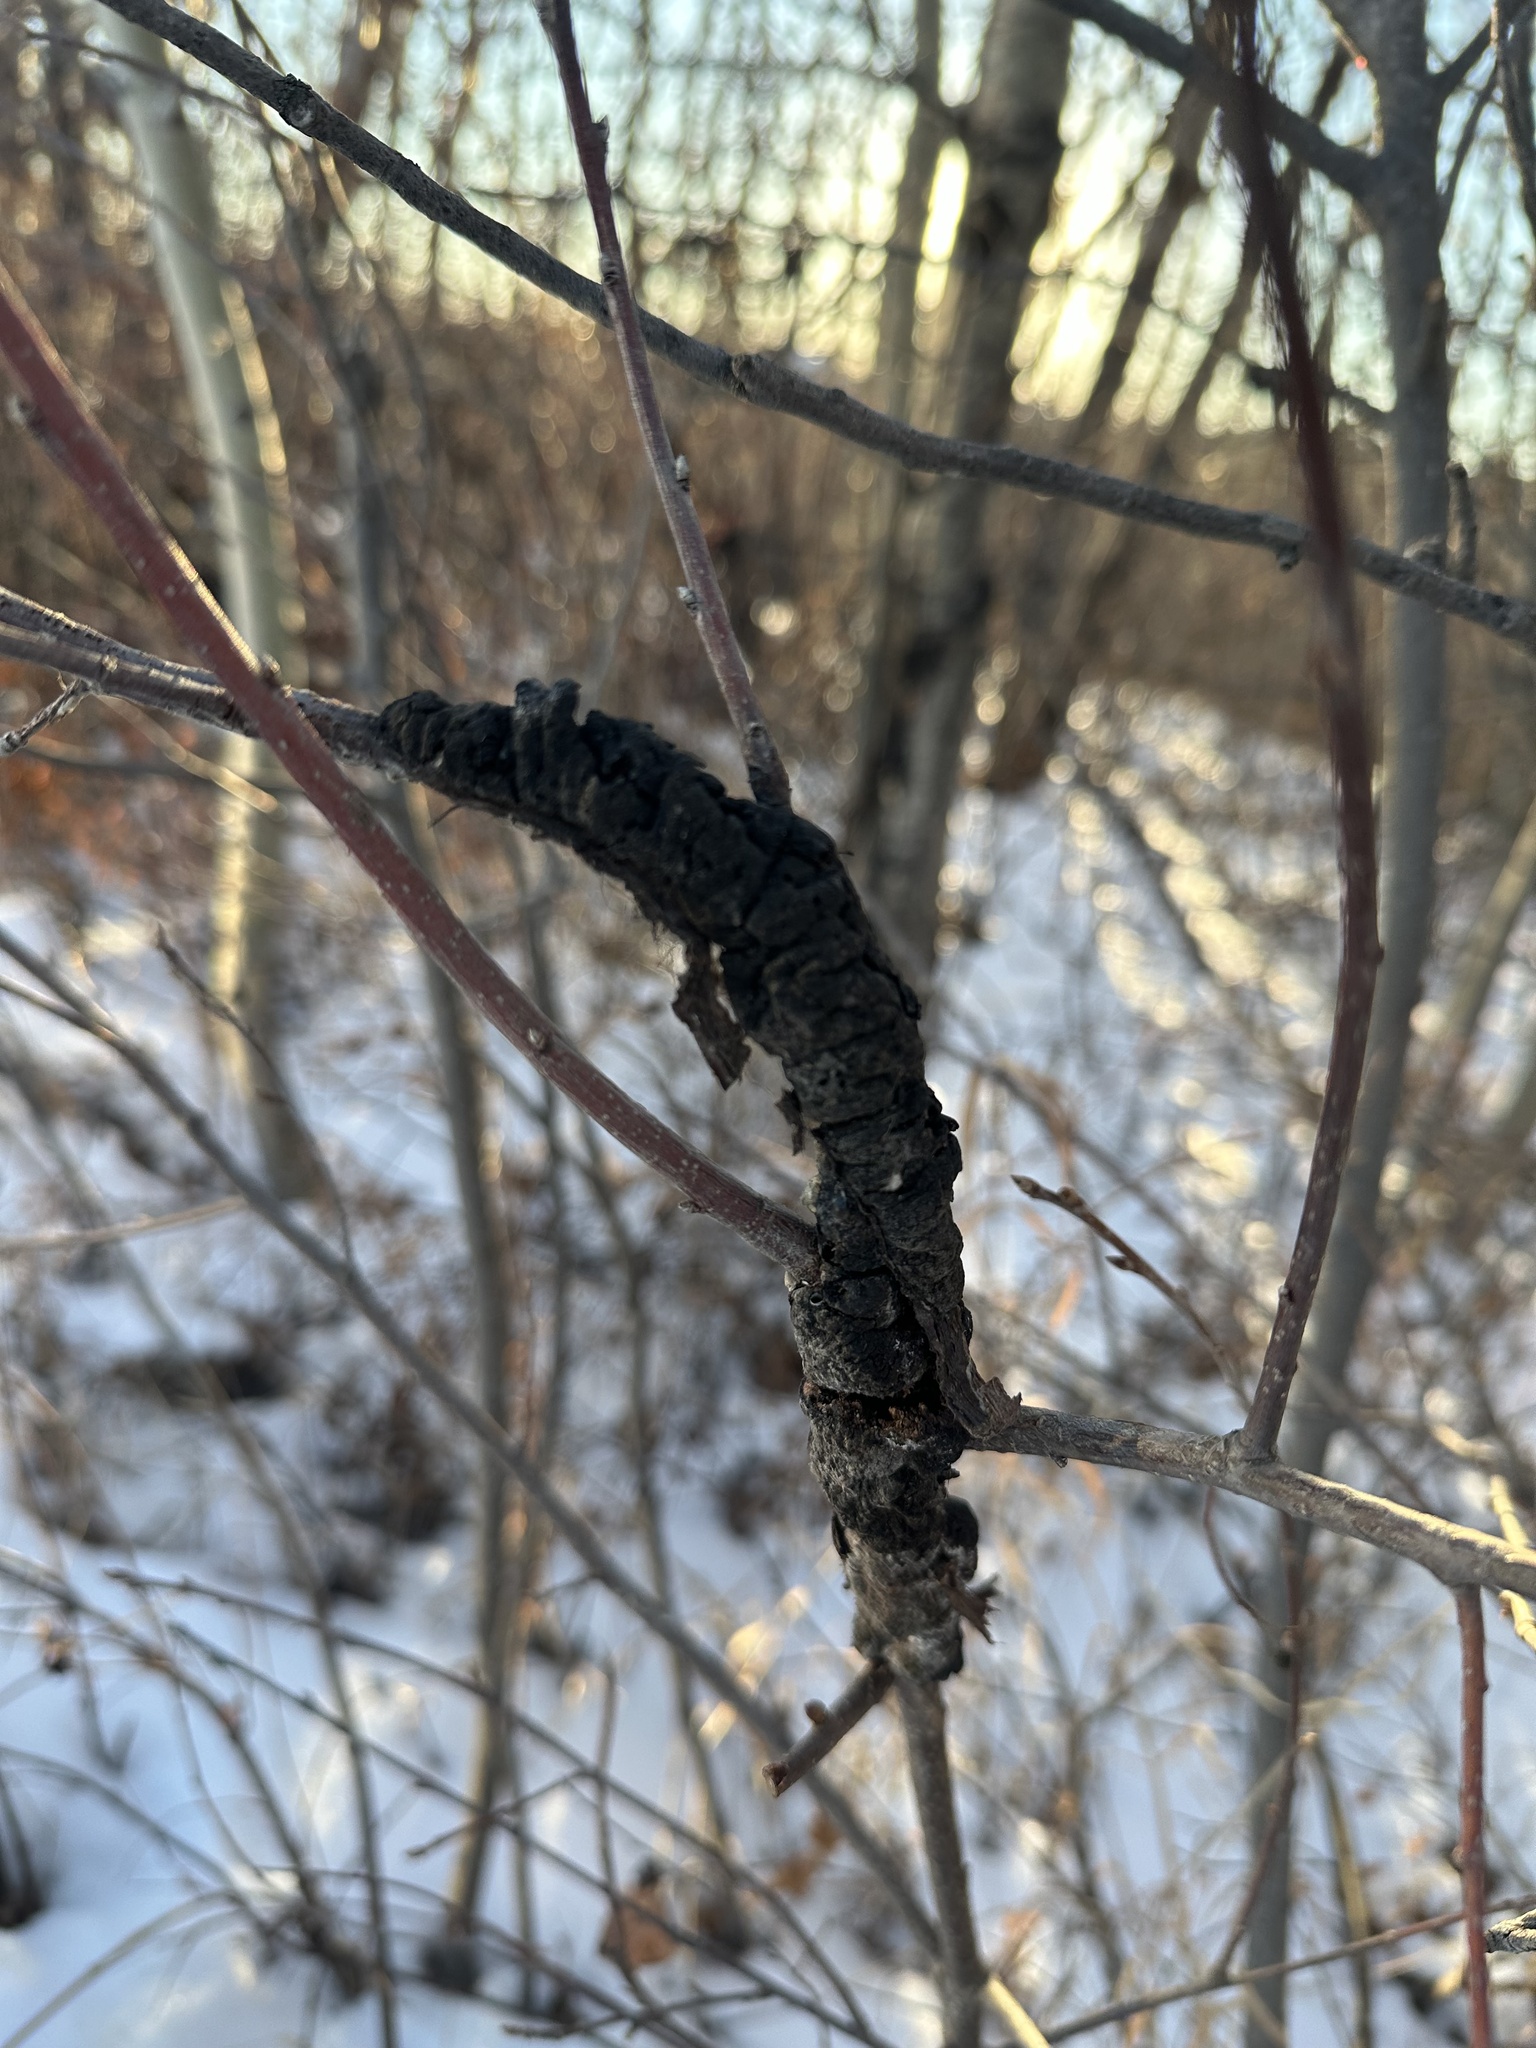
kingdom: Fungi
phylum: Ascomycota
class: Dothideomycetes
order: Venturiales
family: Venturiaceae
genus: Apiosporina
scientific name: Apiosporina morbosa
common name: Black knot
